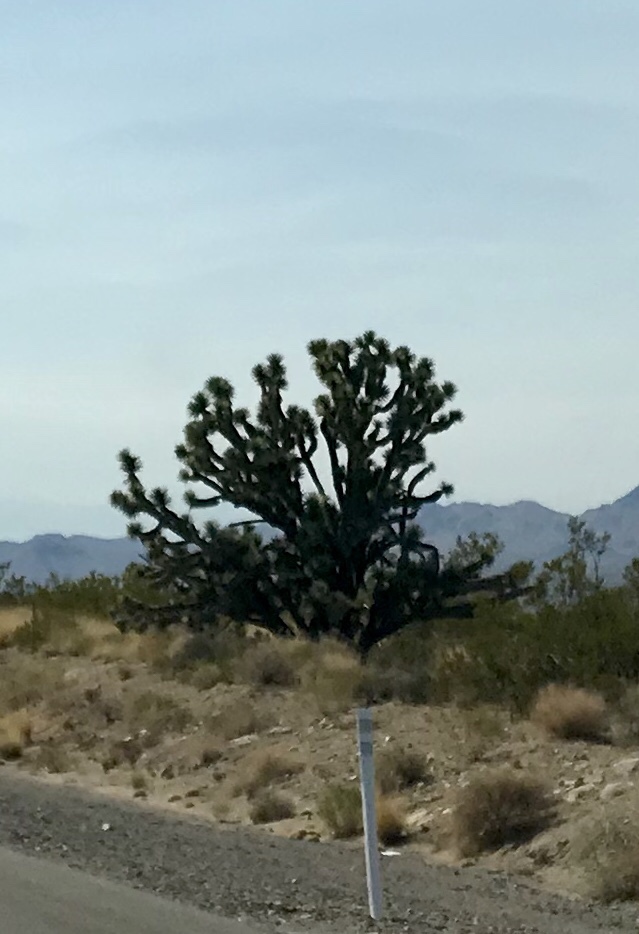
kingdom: Plantae
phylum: Tracheophyta
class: Liliopsida
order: Asparagales
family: Asparagaceae
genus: Yucca
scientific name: Yucca brevifolia
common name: Joshua tree
